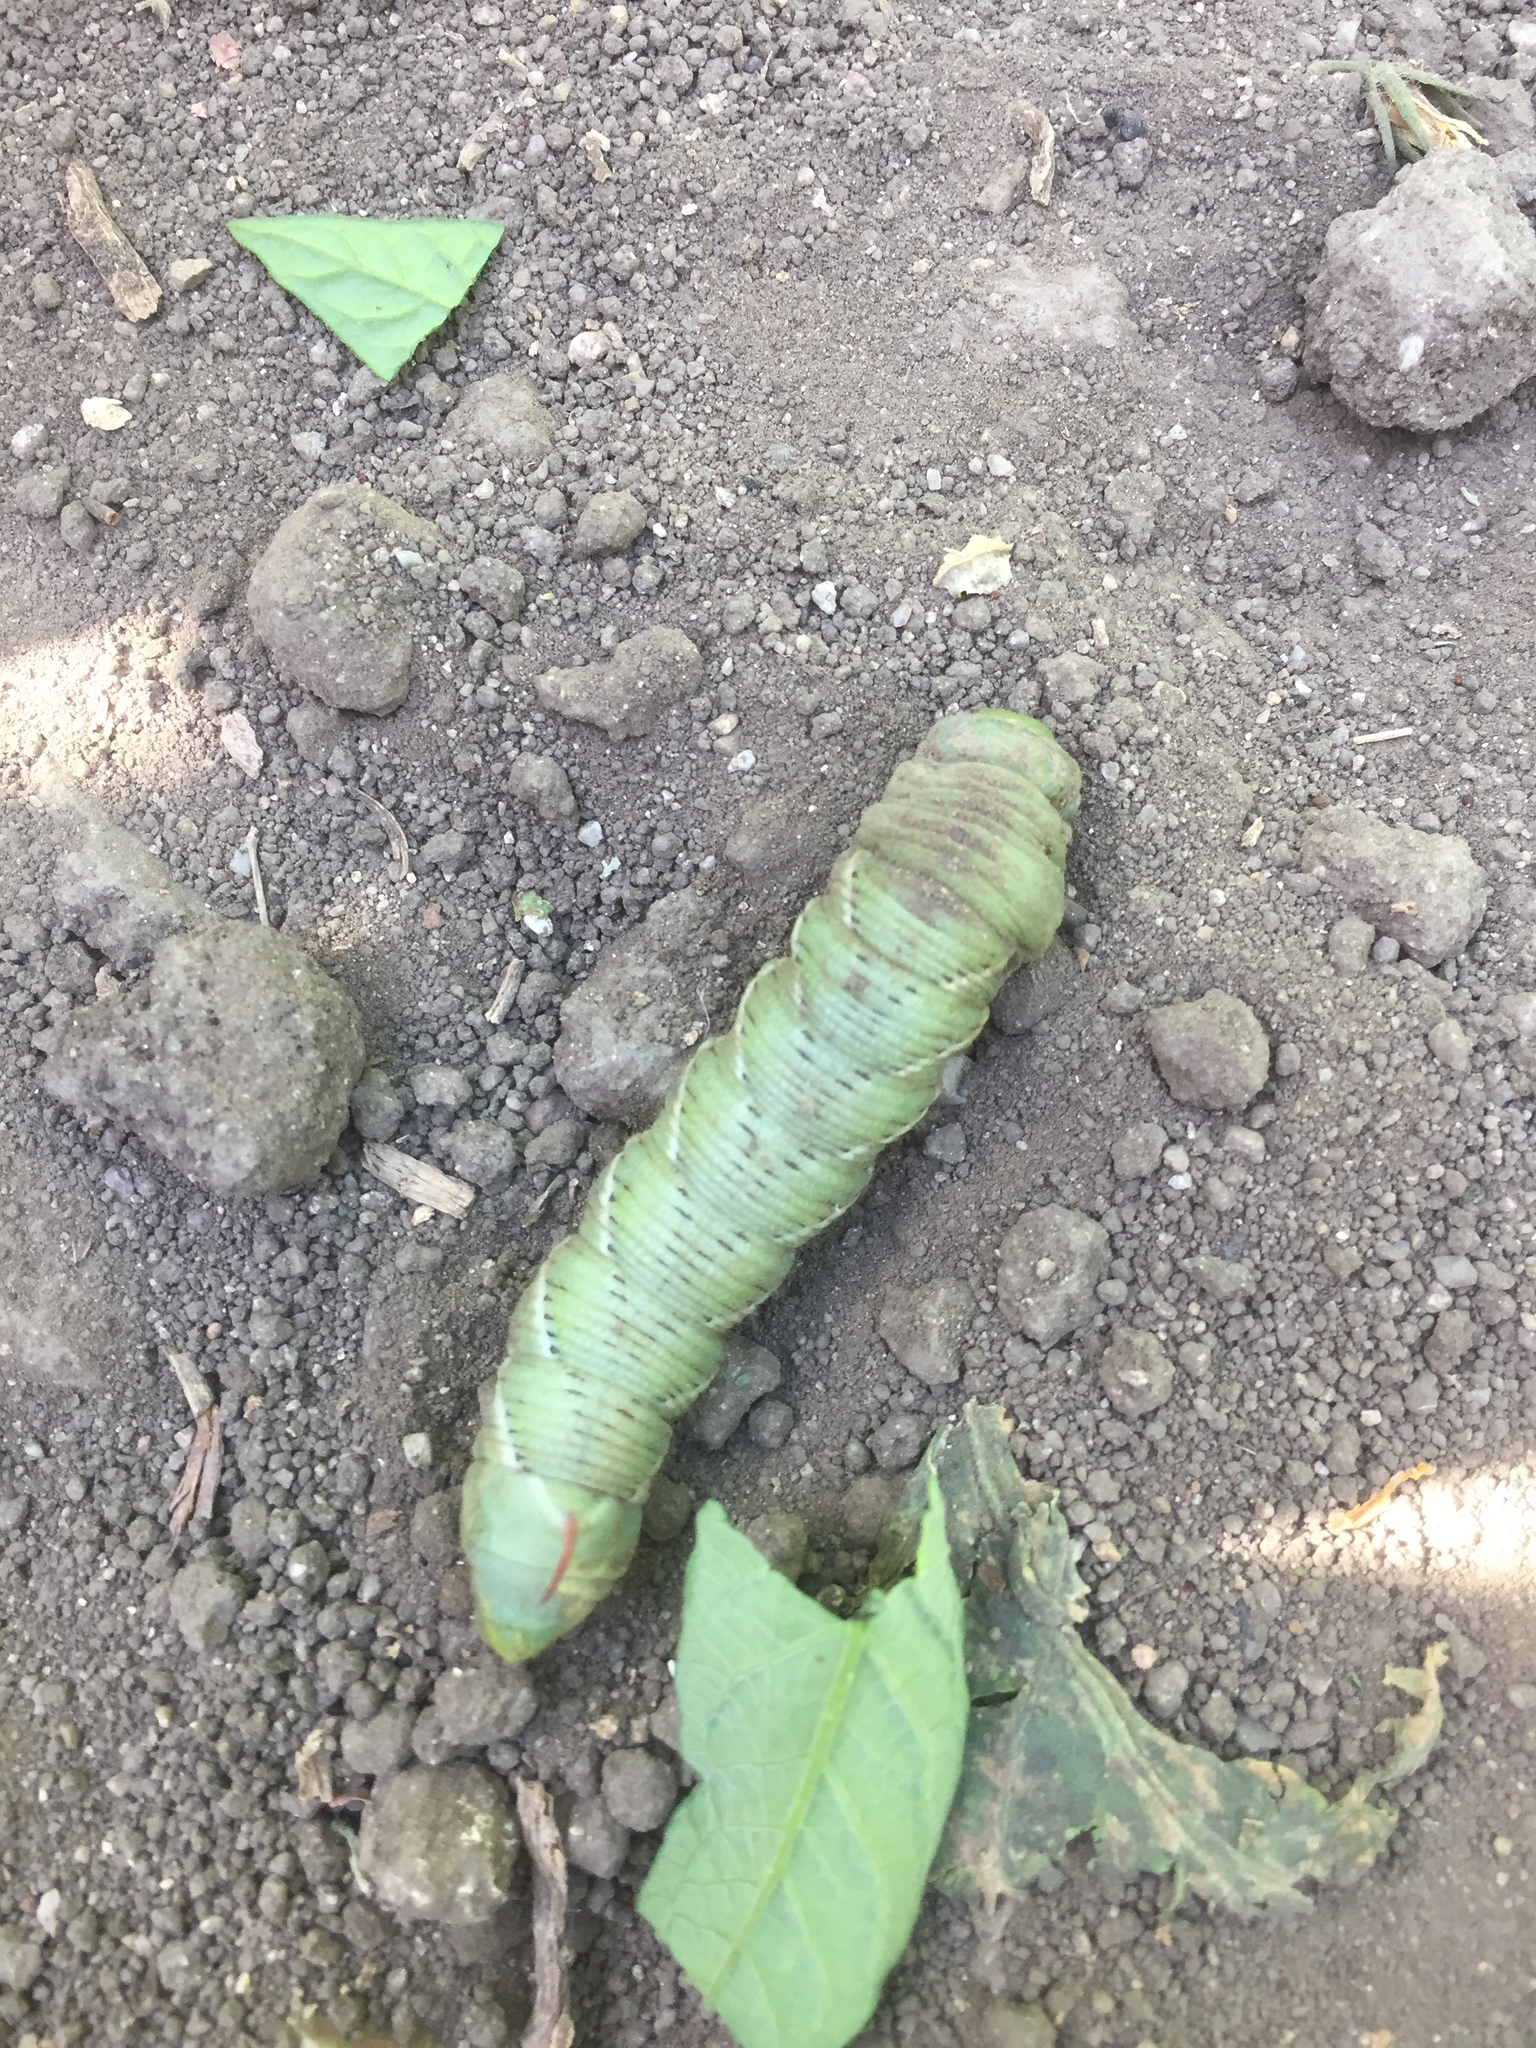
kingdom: Animalia
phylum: Arthropoda
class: Insecta
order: Lepidoptera
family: Sphingidae
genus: Manduca
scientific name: Manduca sexta
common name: Carolina sphinx
